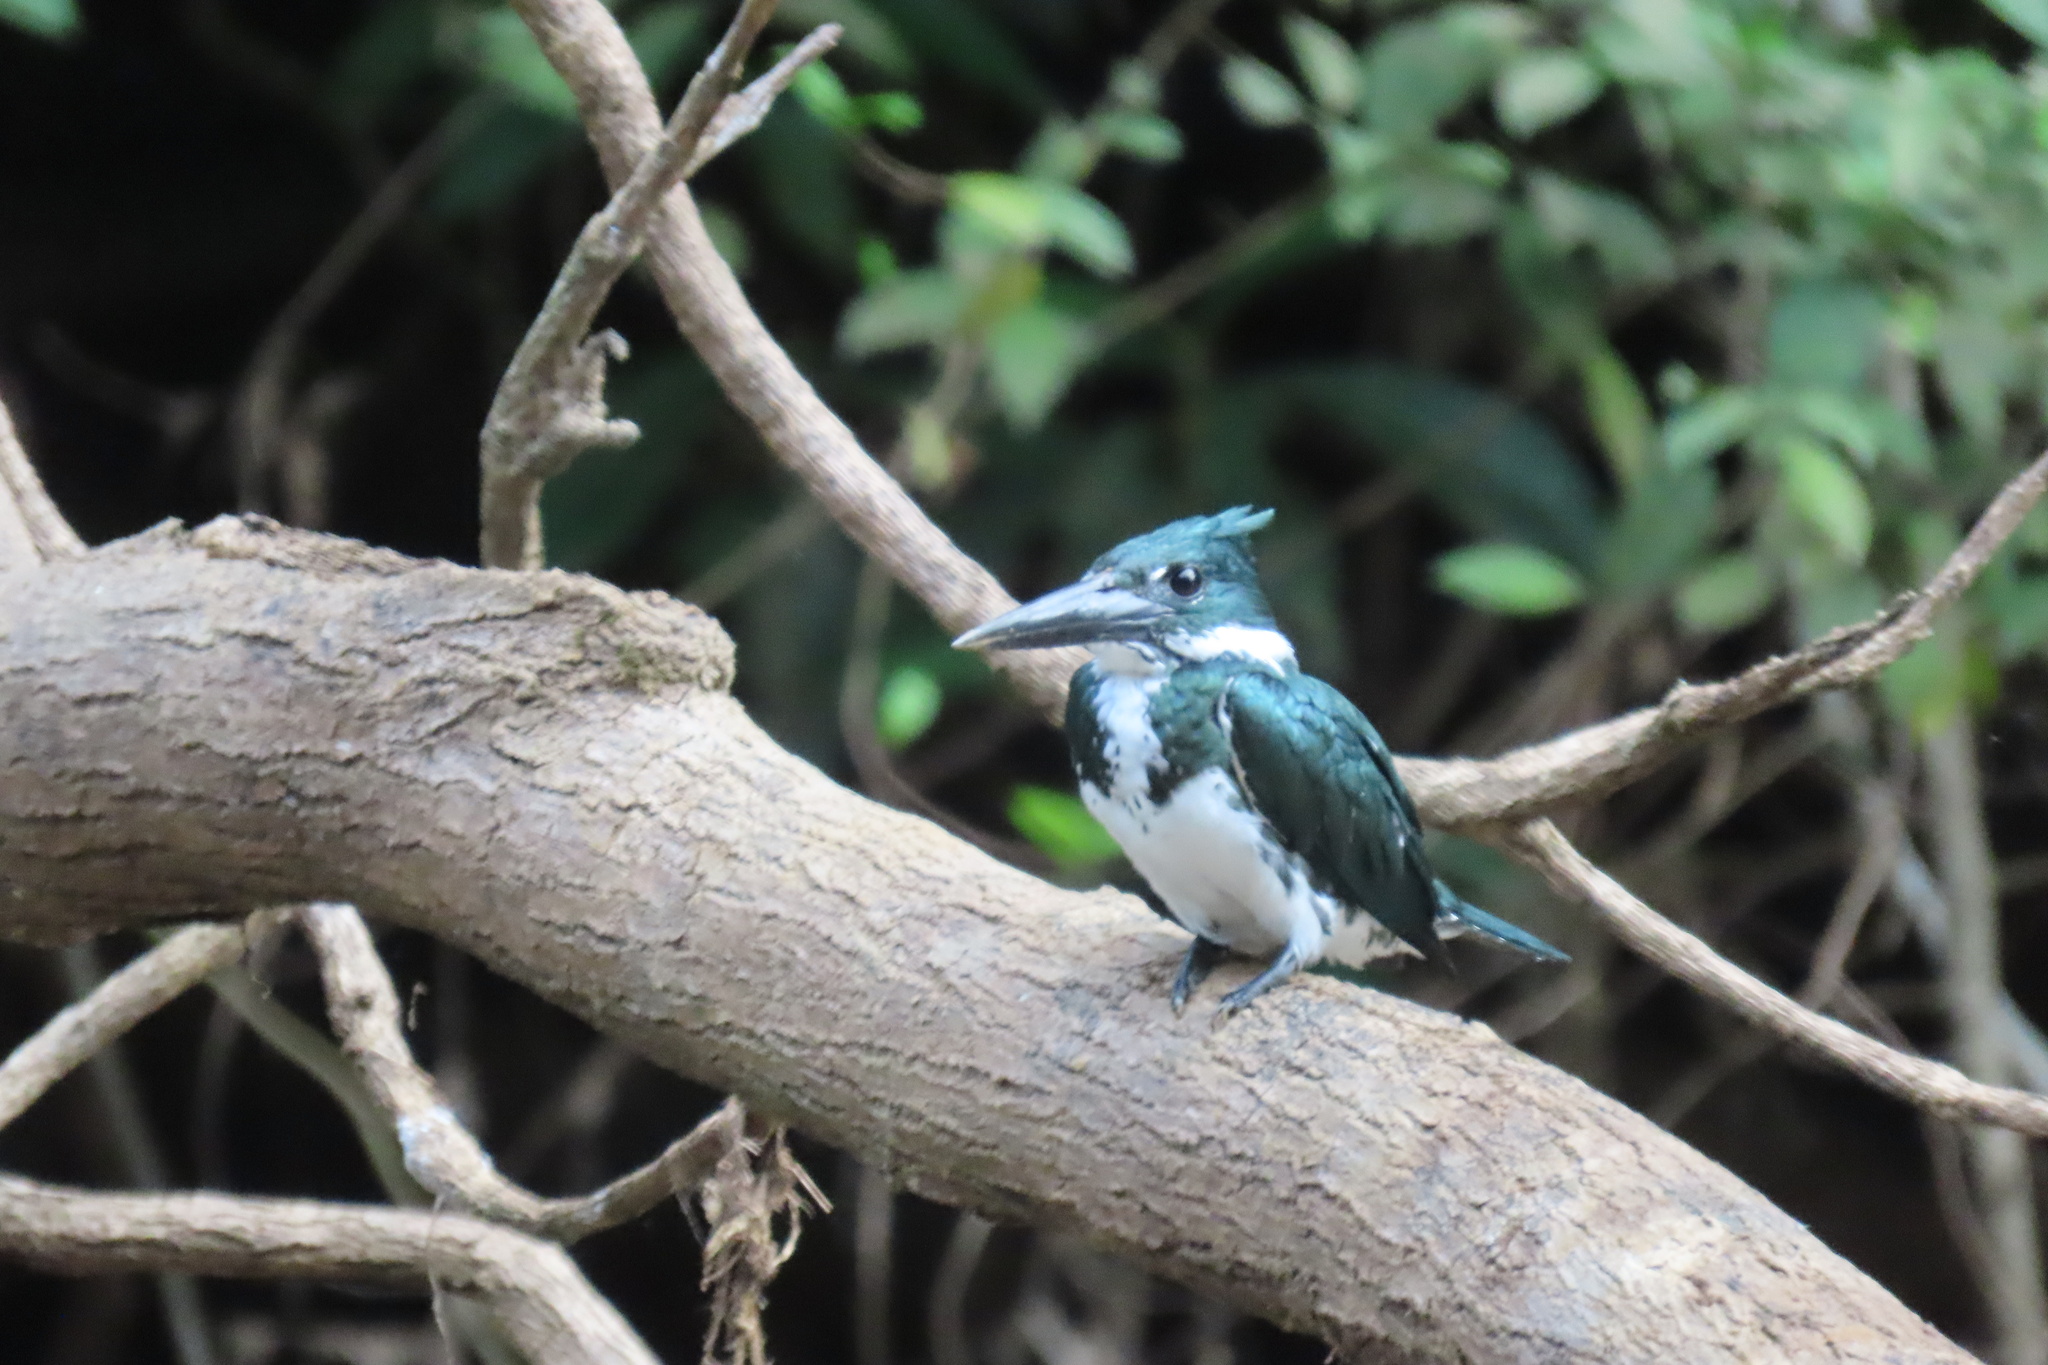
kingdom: Animalia
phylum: Chordata
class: Aves
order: Coraciiformes
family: Alcedinidae
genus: Chloroceryle
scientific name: Chloroceryle amazona
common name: Amazon kingfisher
